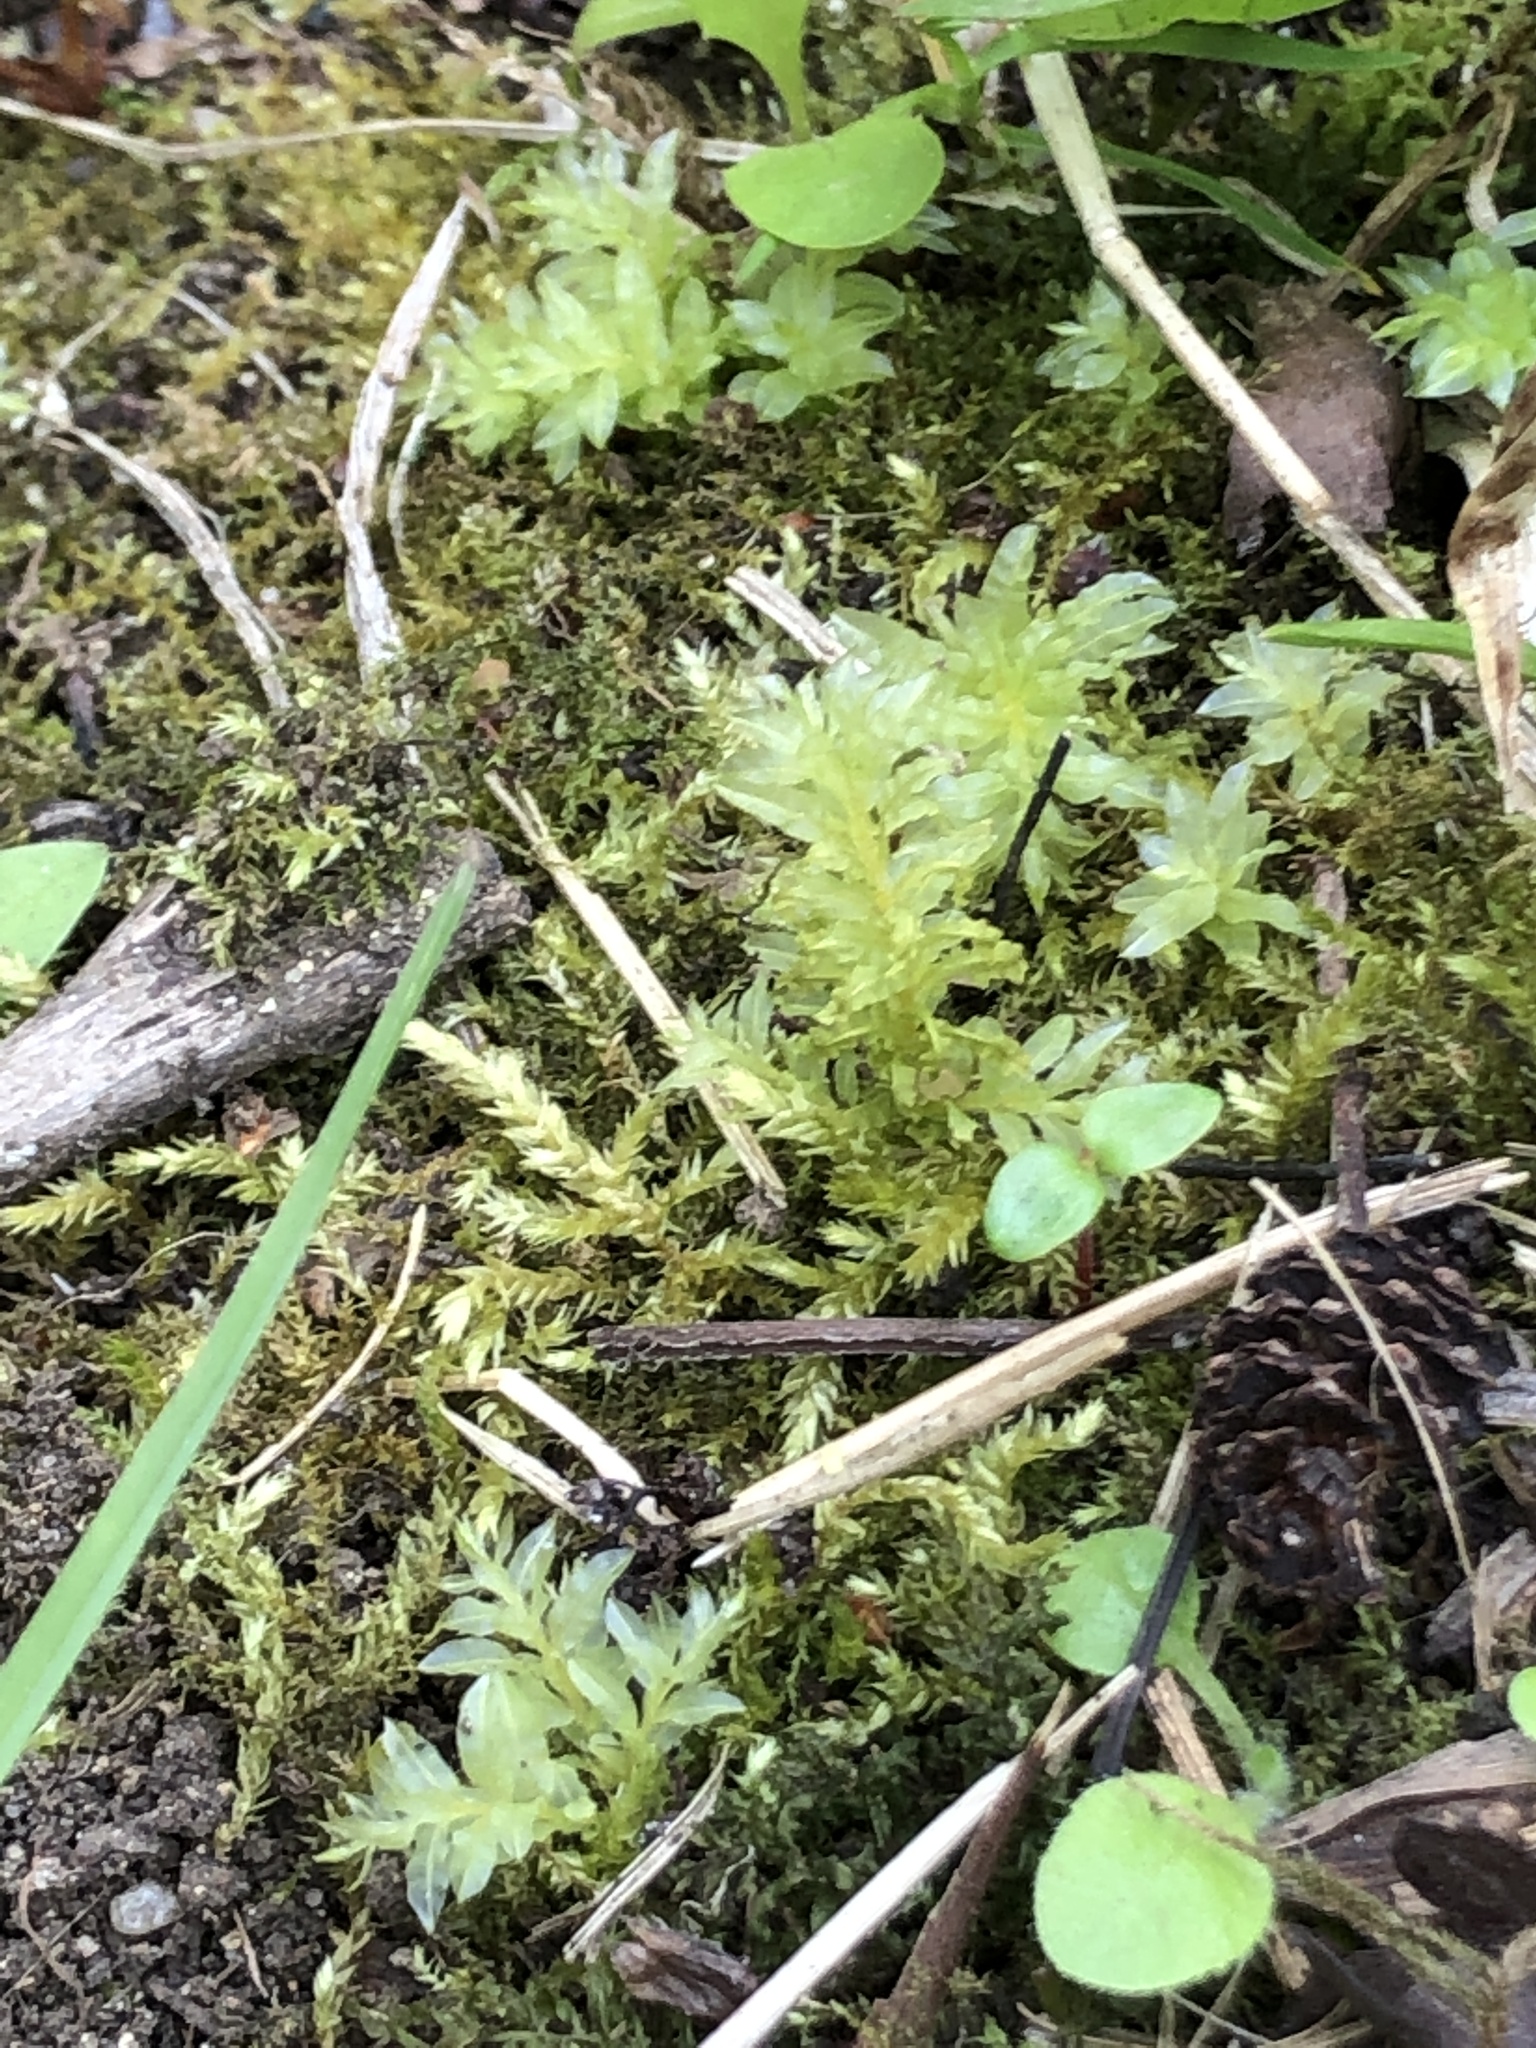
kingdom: Plantae
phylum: Bryophyta
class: Bryopsida
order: Bryales
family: Mniaceae
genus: Plagiomnium
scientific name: Plagiomnium undulatum
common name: Hart's-tongue thyme-moss
